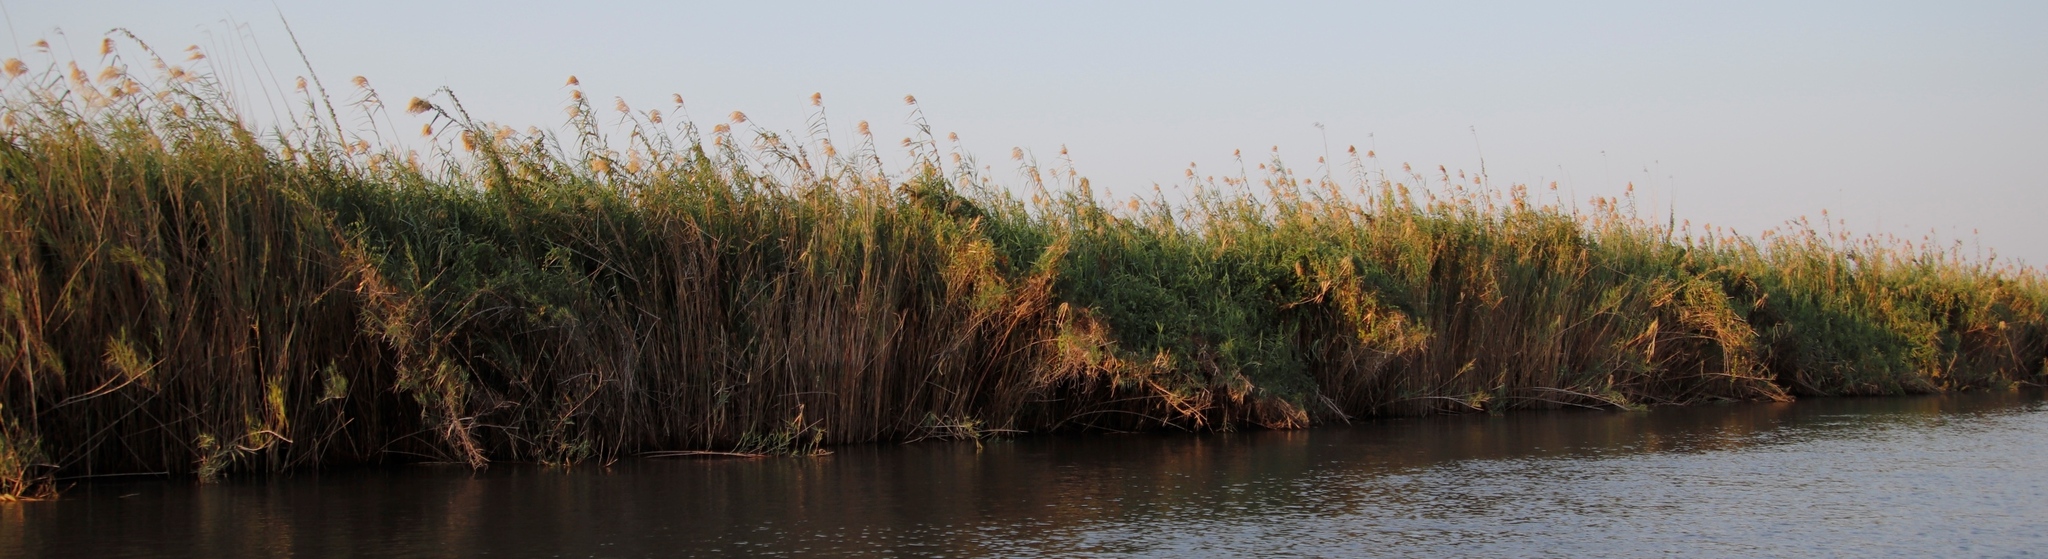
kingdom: Plantae
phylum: Tracheophyta
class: Liliopsida
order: Poales
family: Poaceae
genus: Phragmites
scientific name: Phragmites australis
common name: Common reed
